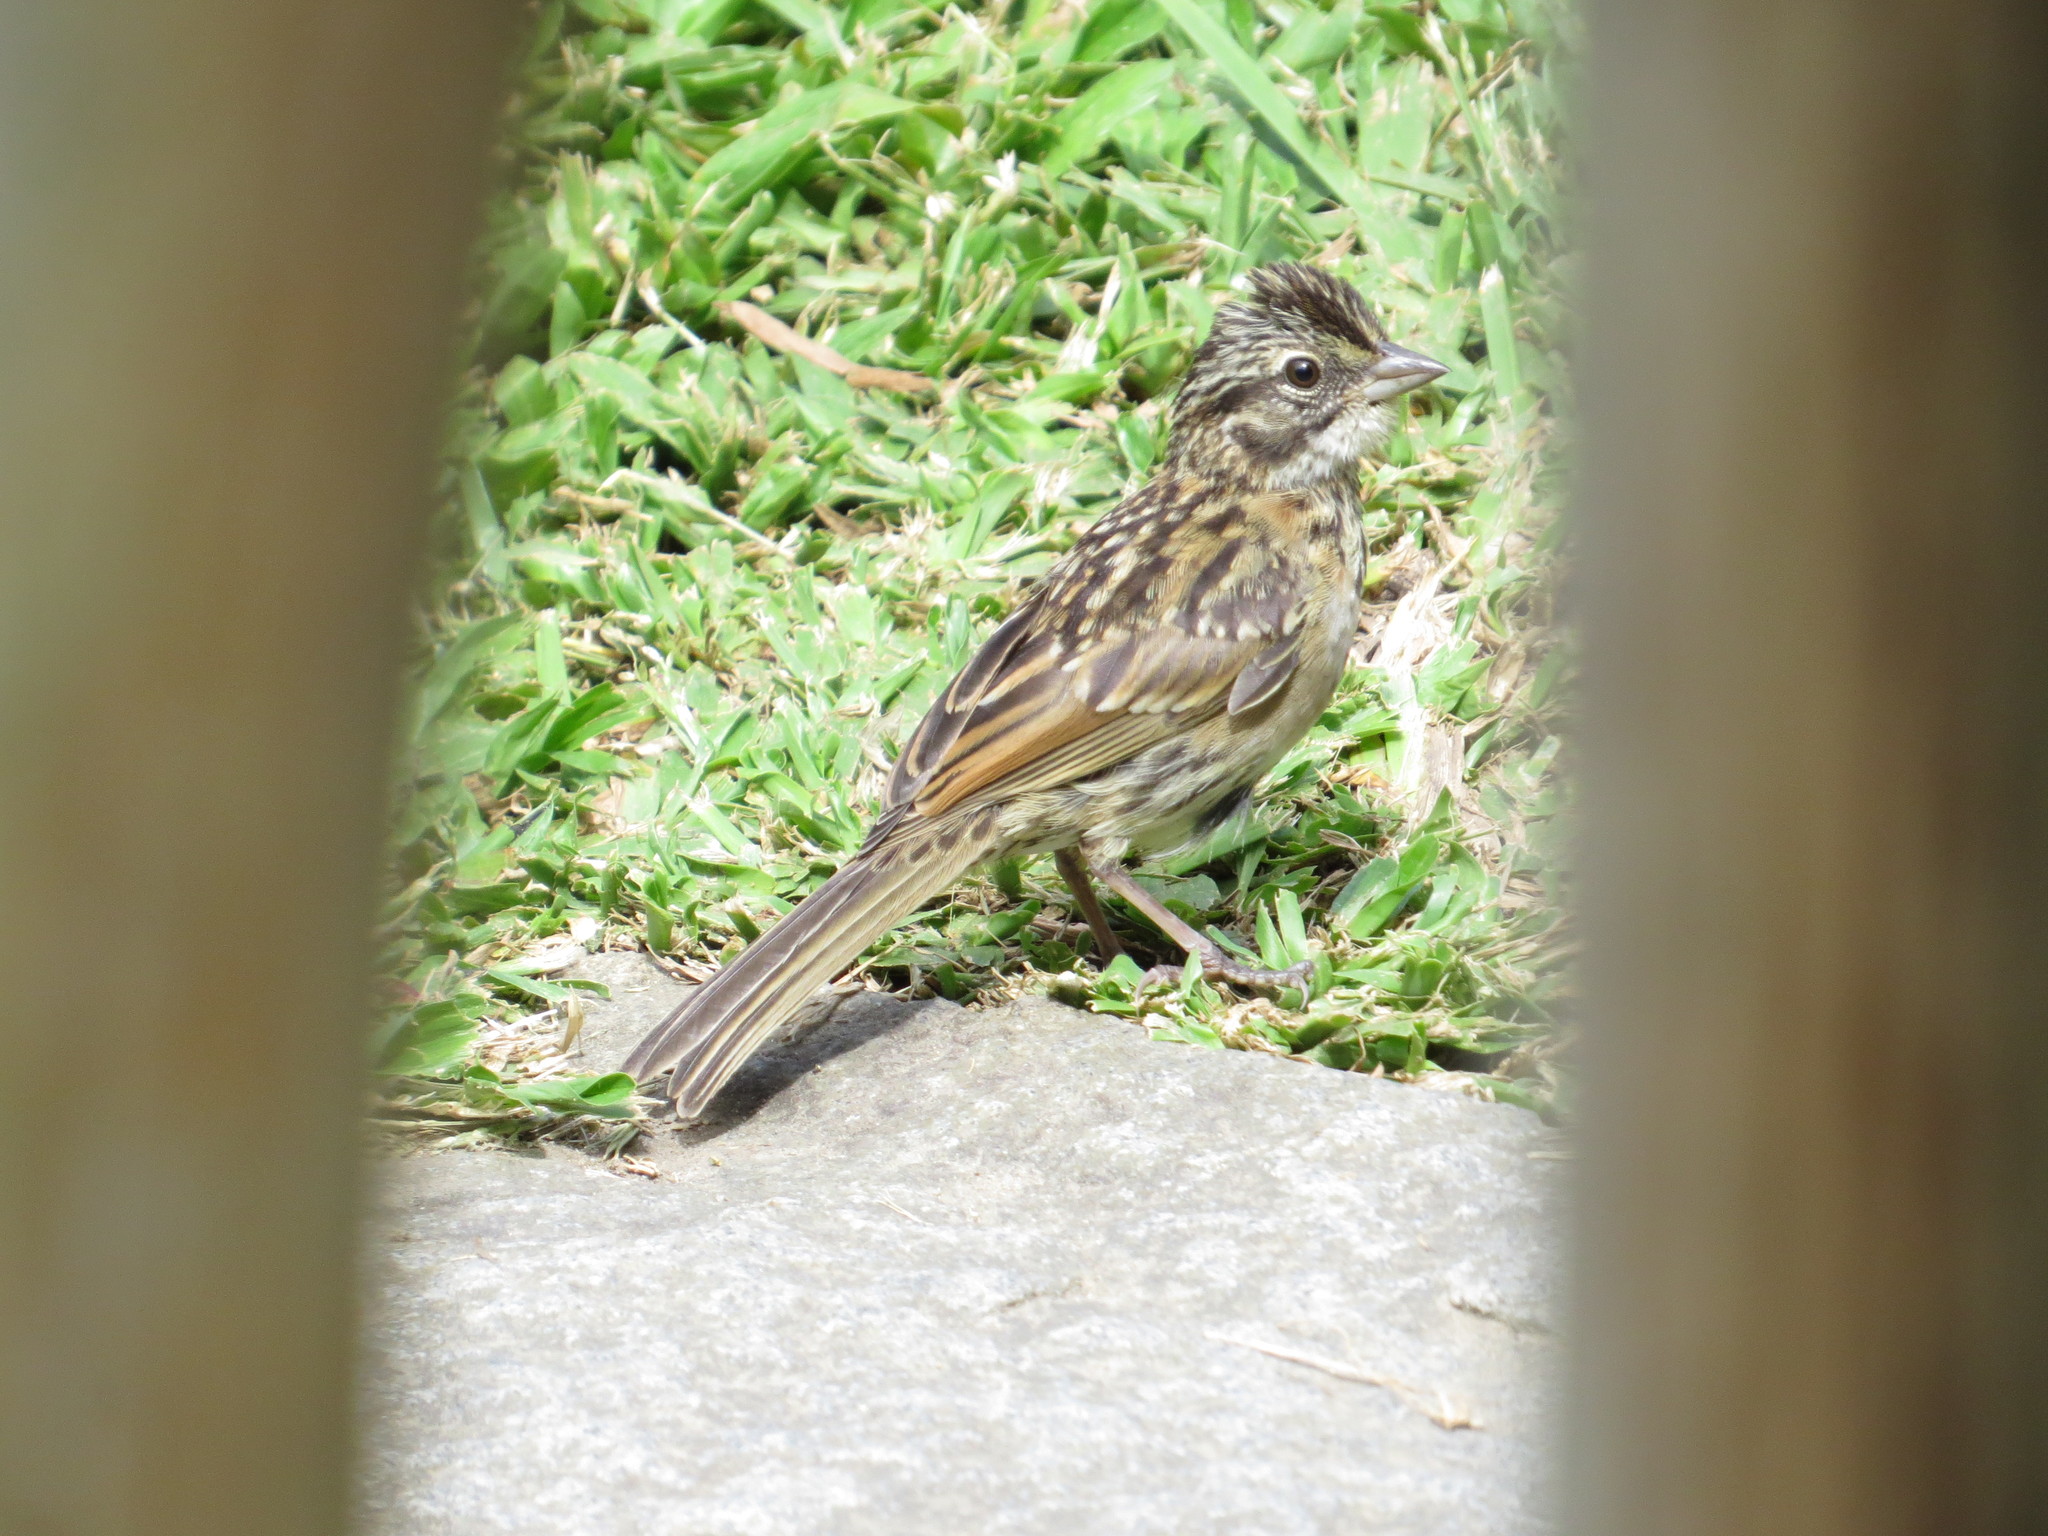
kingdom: Animalia
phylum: Chordata
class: Aves
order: Passeriformes
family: Passerellidae
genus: Zonotrichia
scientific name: Zonotrichia capensis
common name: Rufous-collared sparrow
